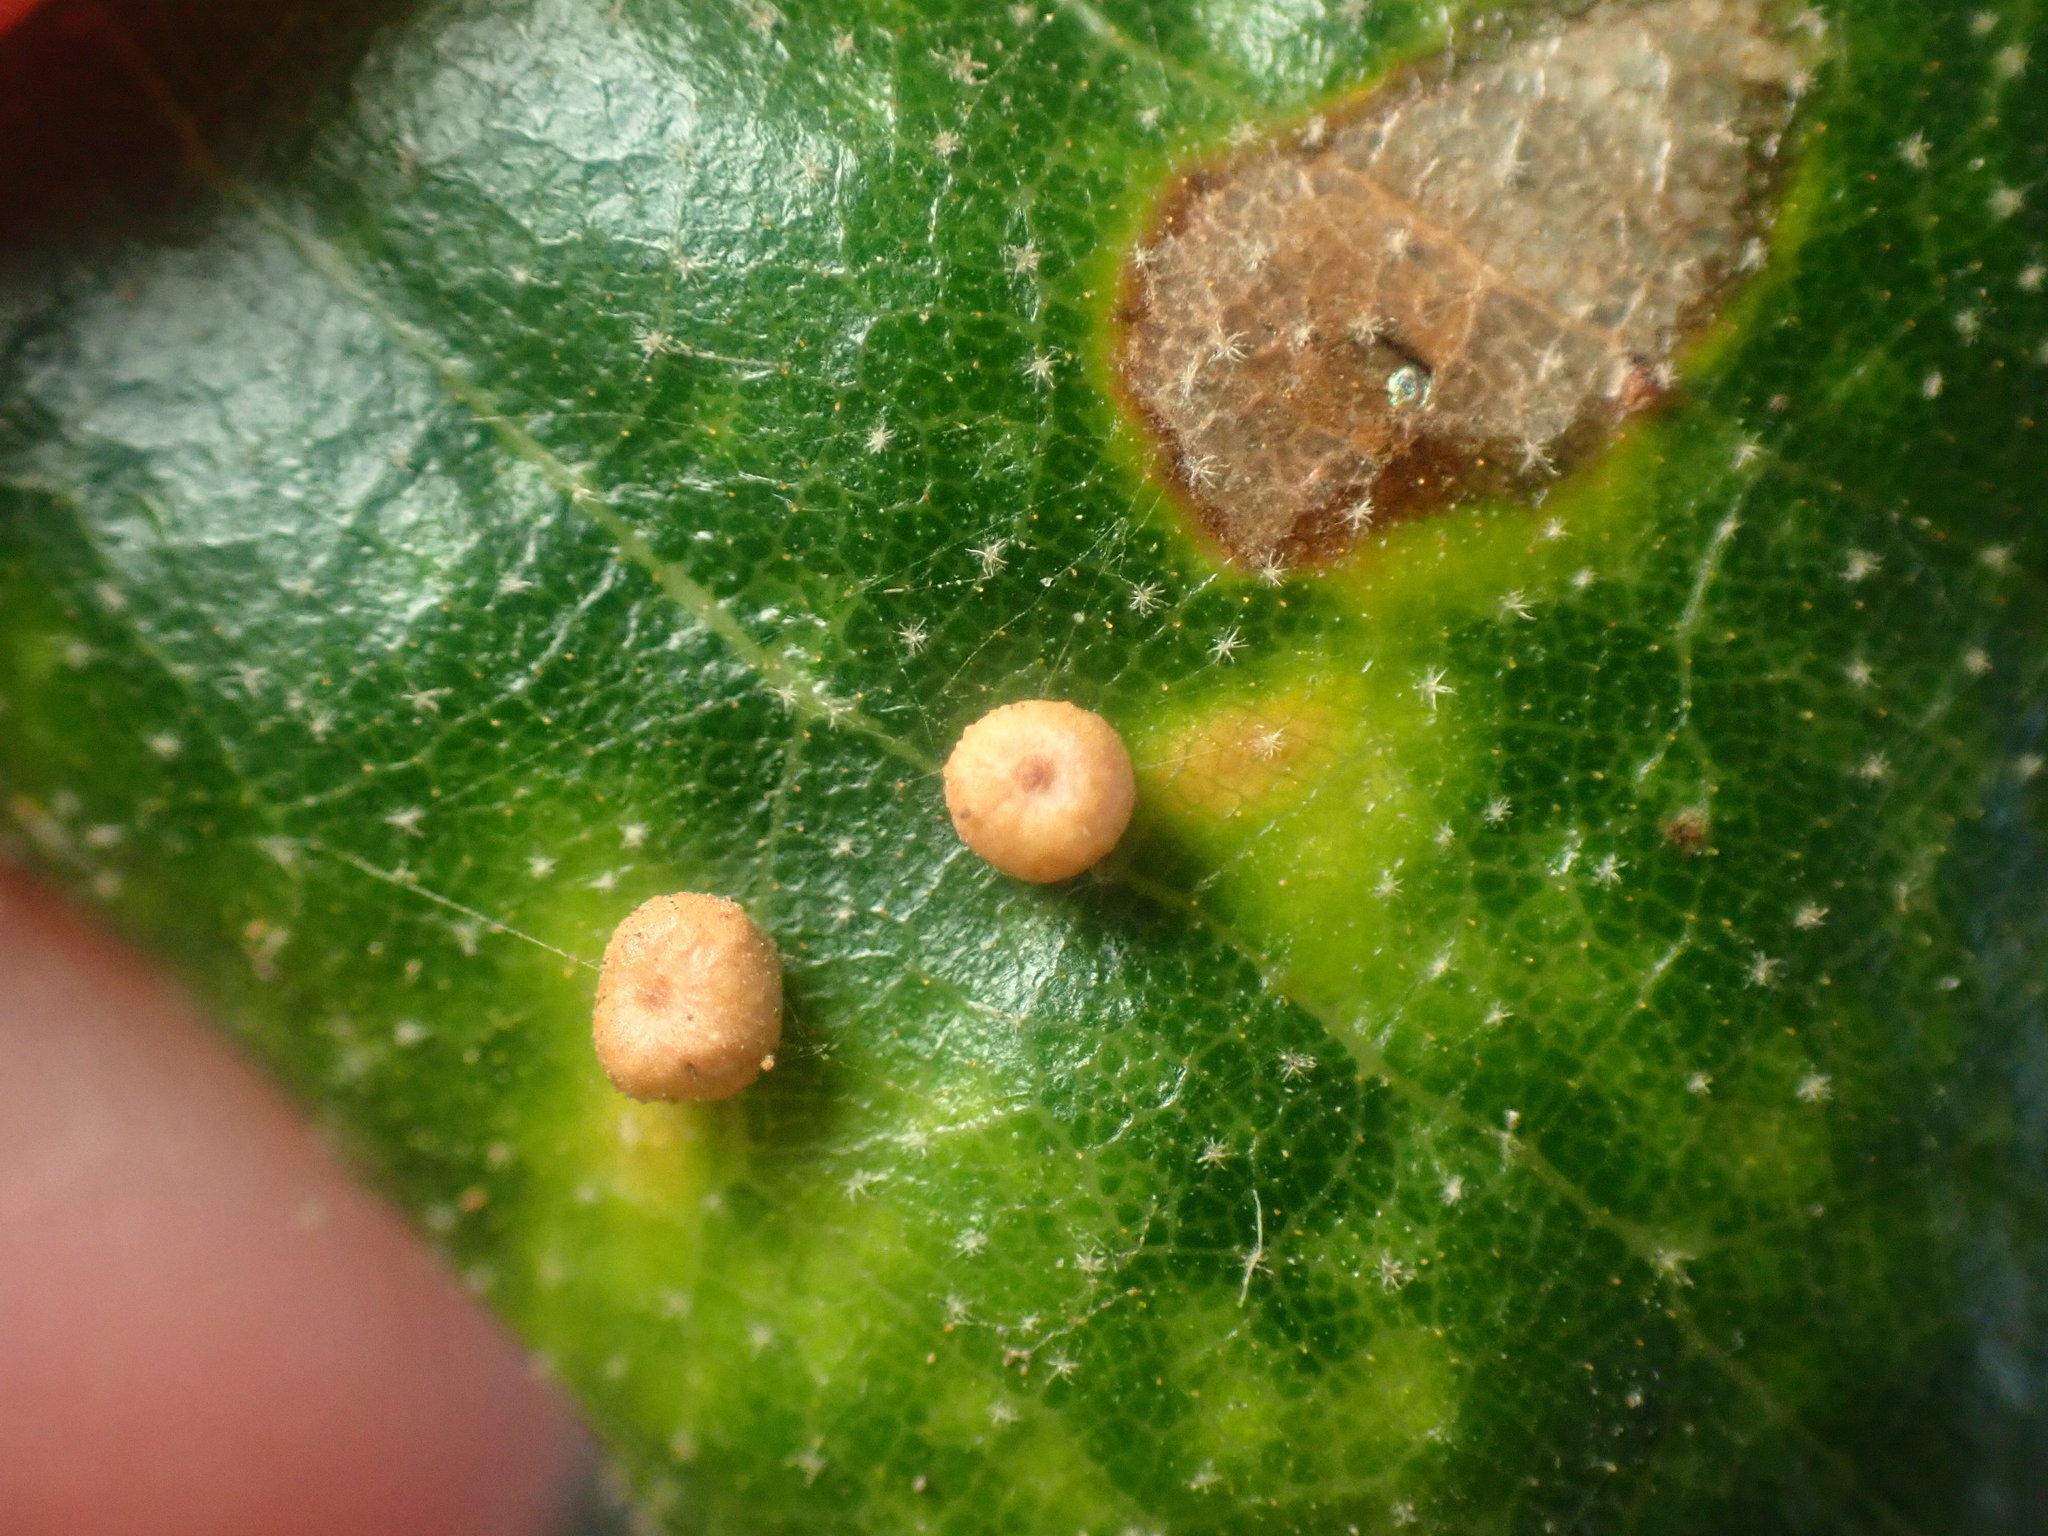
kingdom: Animalia
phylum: Arthropoda
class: Insecta
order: Hymenoptera
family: Cynipidae
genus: Dryocosmus
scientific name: Dryocosmus
